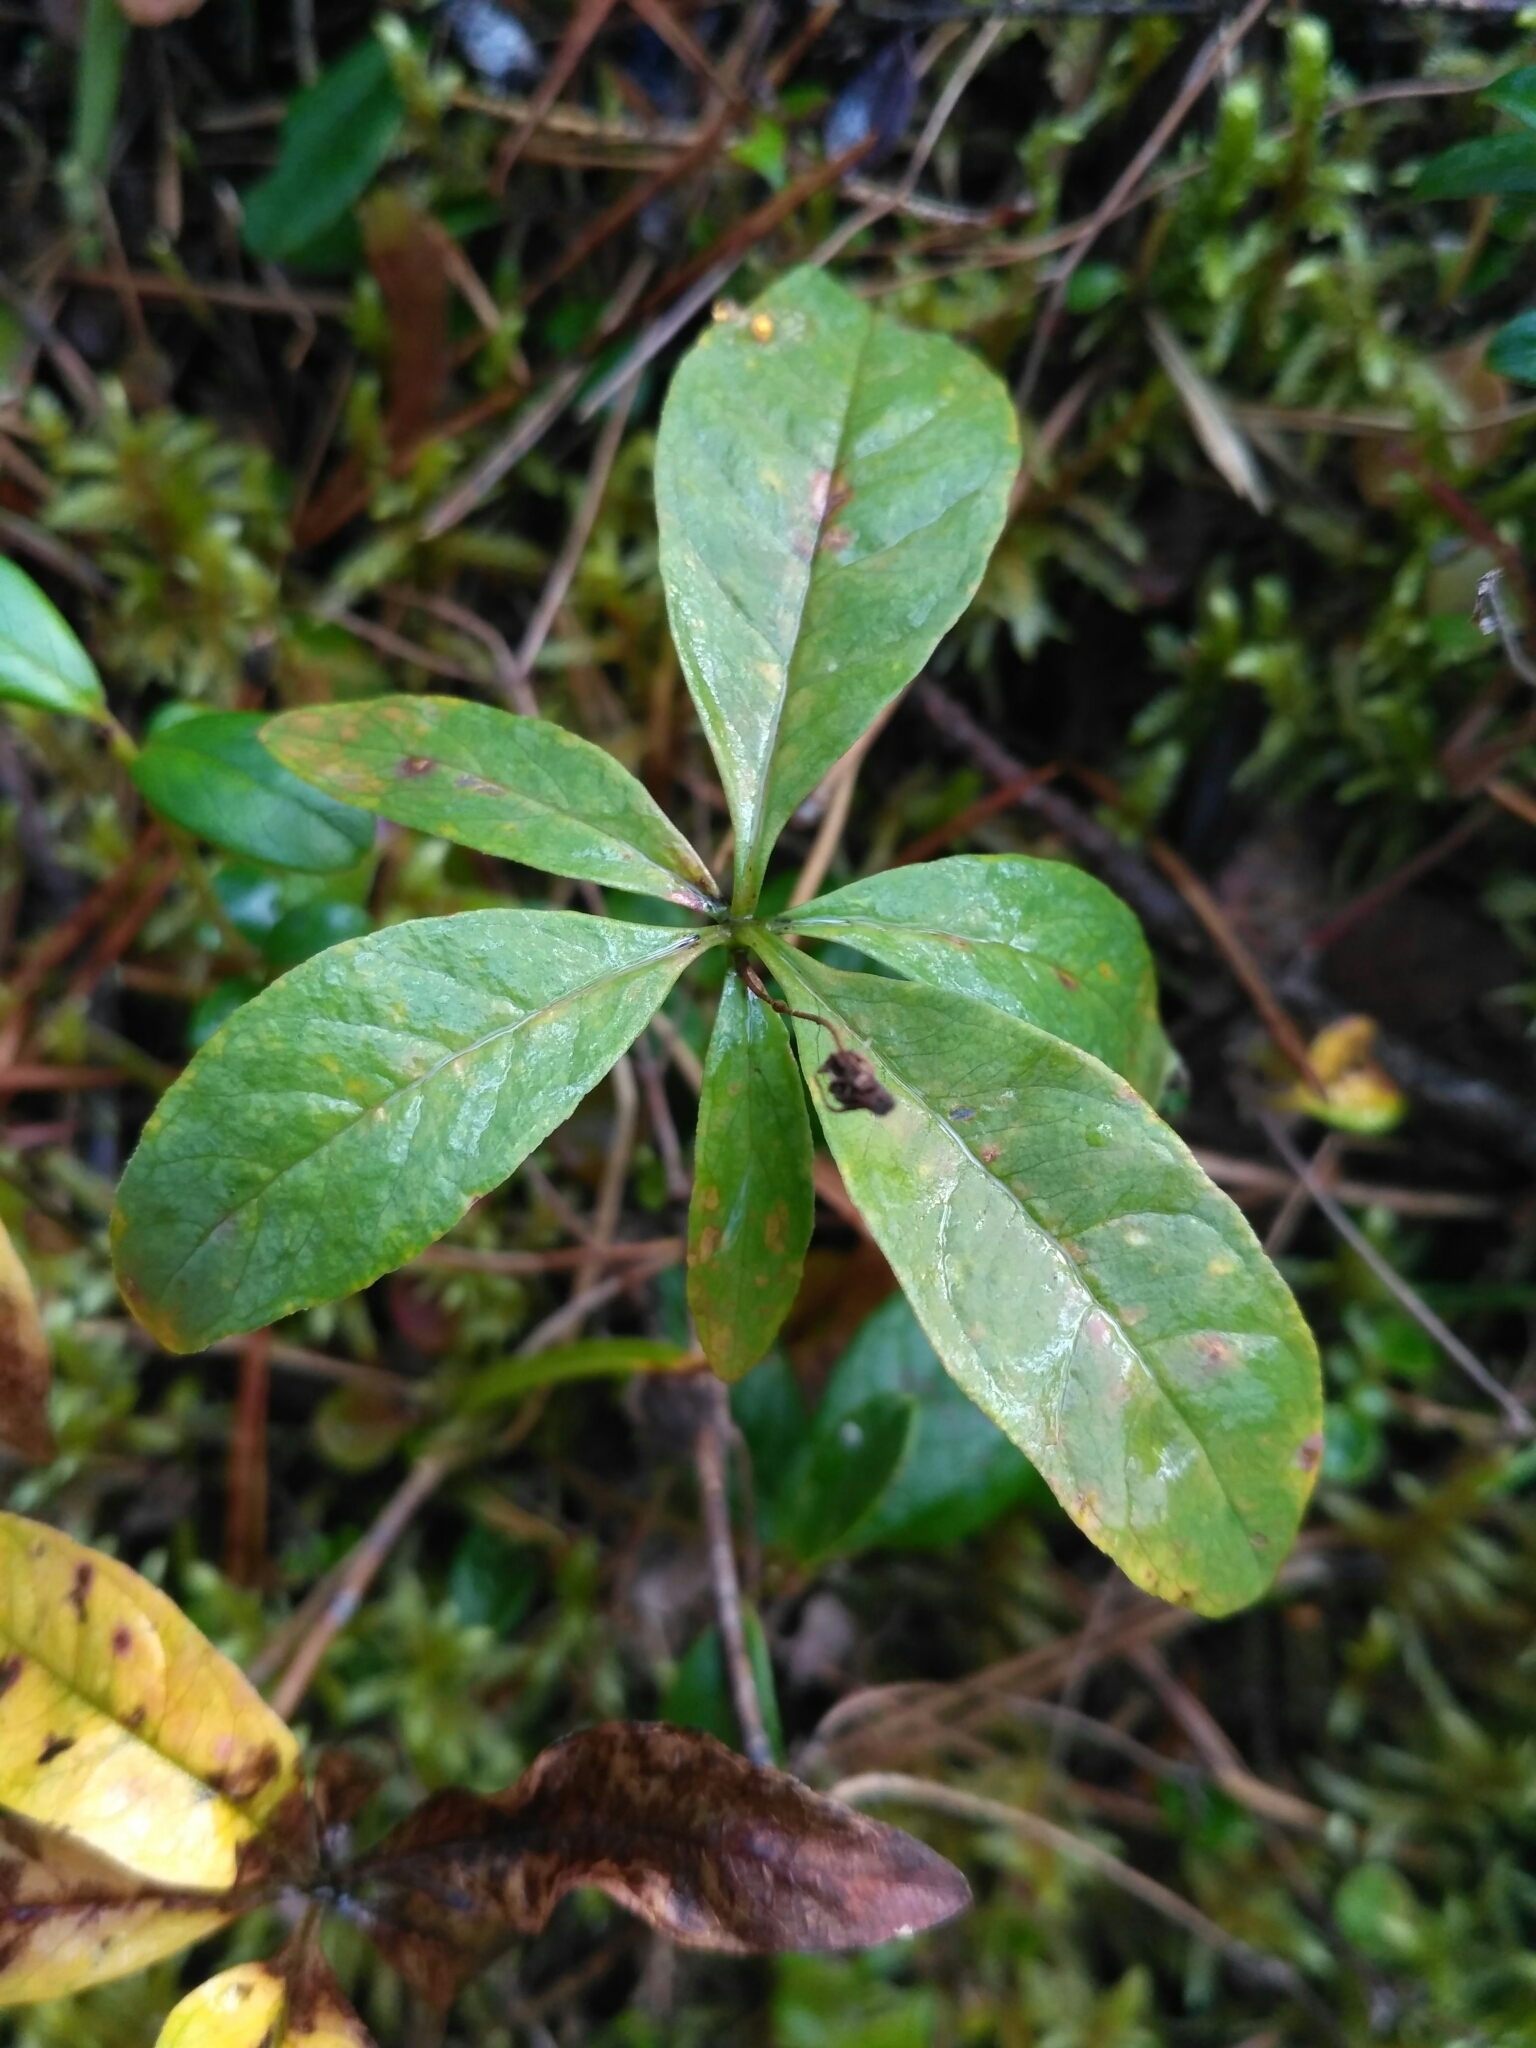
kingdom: Plantae
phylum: Tracheophyta
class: Magnoliopsida
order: Ericales
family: Primulaceae
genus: Lysimachia
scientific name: Lysimachia europaea
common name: Arctic starflower
